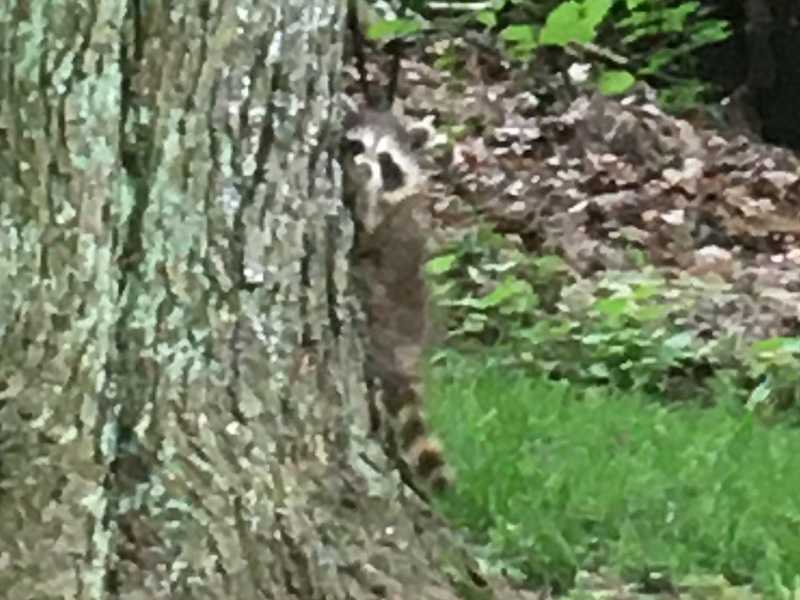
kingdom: Animalia
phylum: Chordata
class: Mammalia
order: Carnivora
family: Procyonidae
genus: Procyon
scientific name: Procyon lotor
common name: Raccoon
